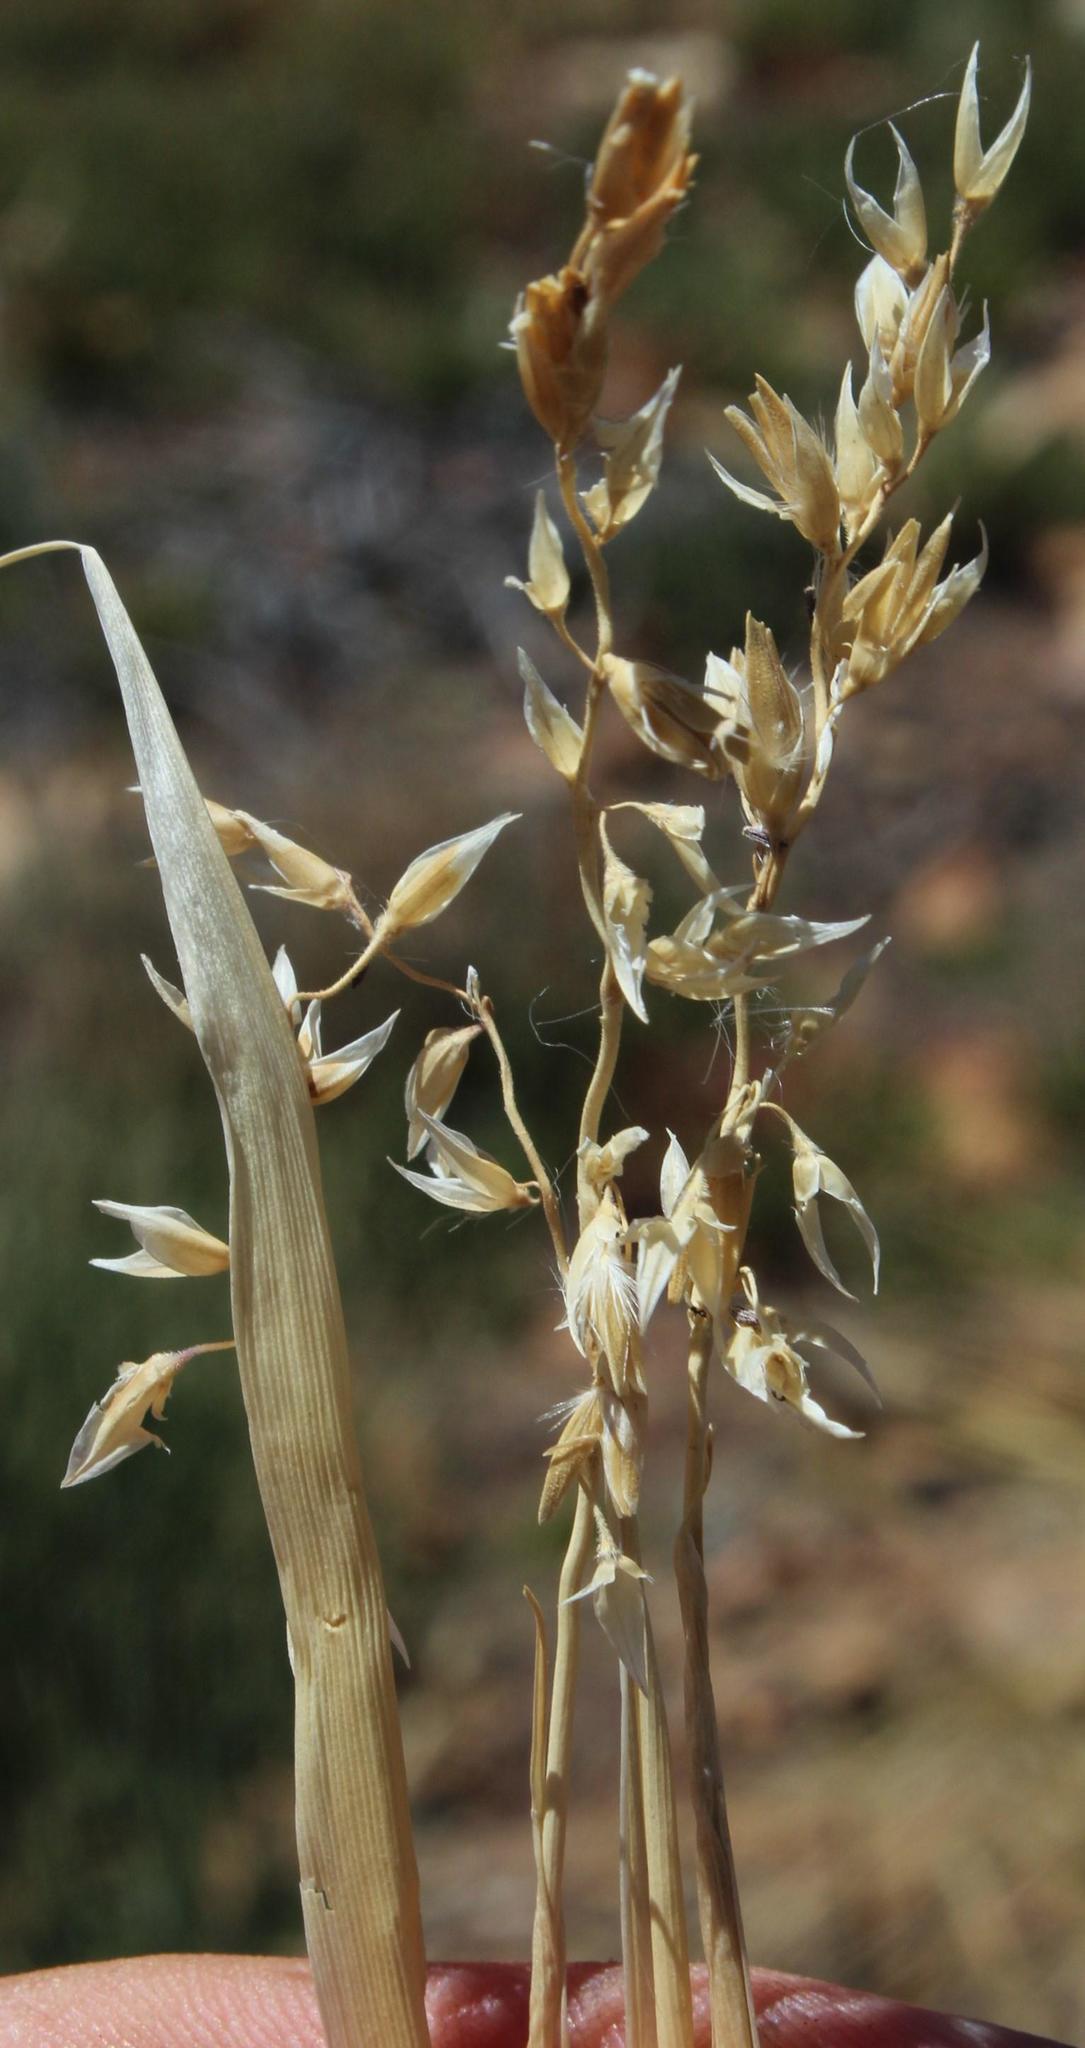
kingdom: Plantae
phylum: Tracheophyta
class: Liliopsida
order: Poales
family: Poaceae
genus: Ehrharta
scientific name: Ehrharta ramosa
